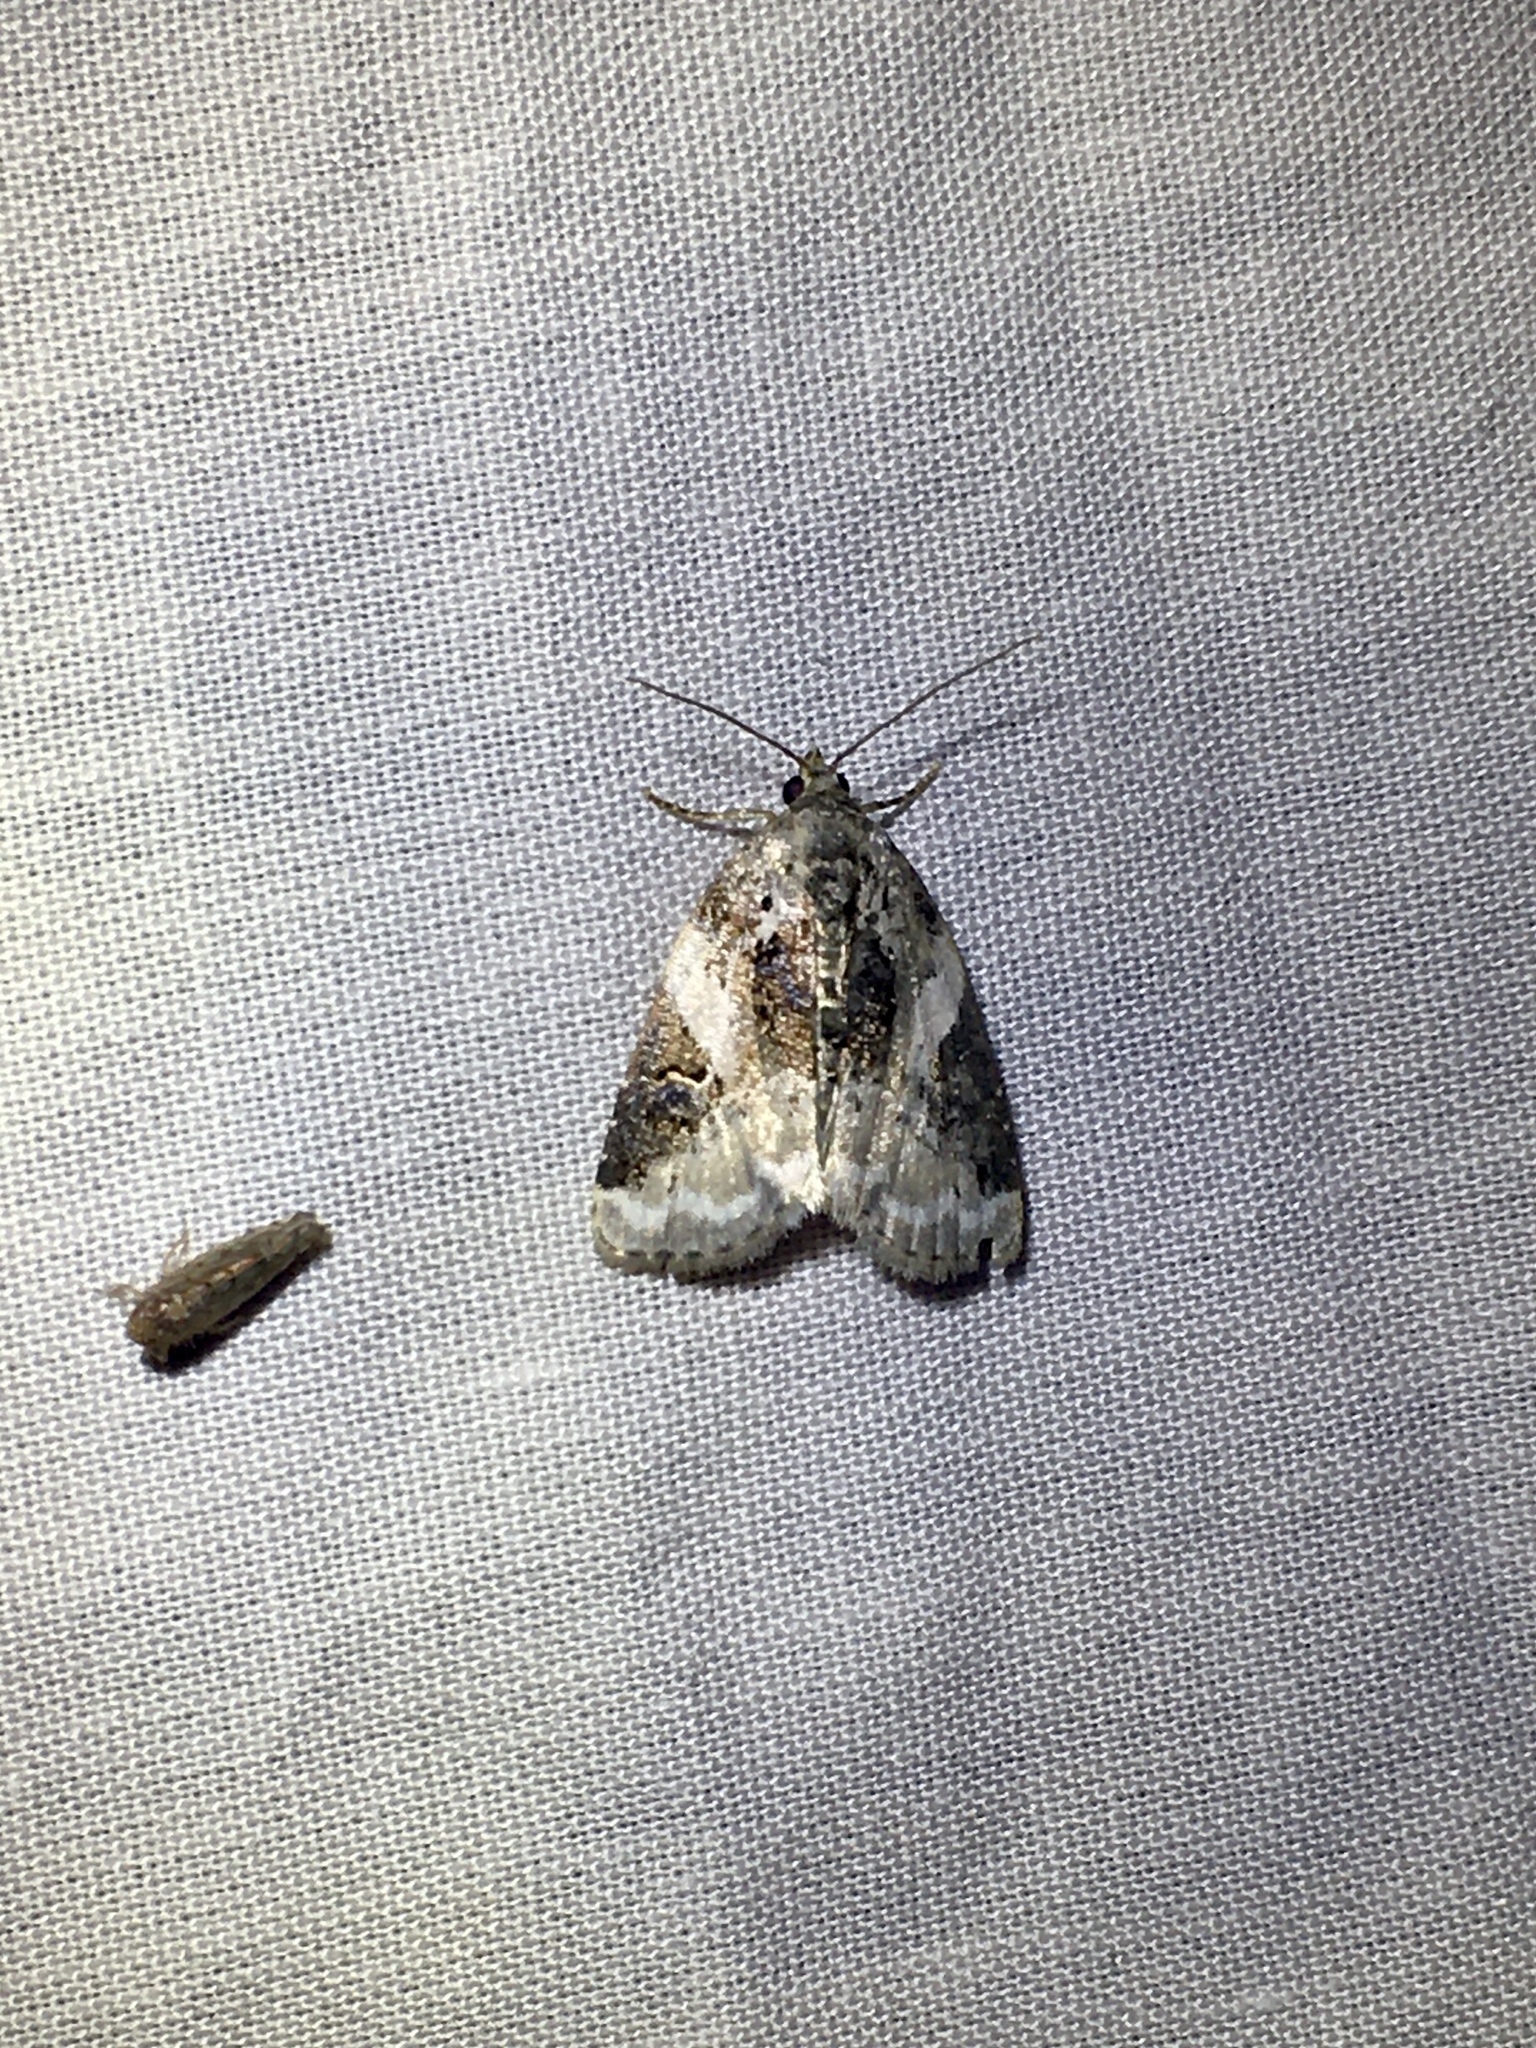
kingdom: Animalia
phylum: Arthropoda
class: Insecta
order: Lepidoptera
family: Noctuidae
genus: Pseudeustrotia
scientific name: Pseudeustrotia carneola
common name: Pink-barred lithacodia moth
